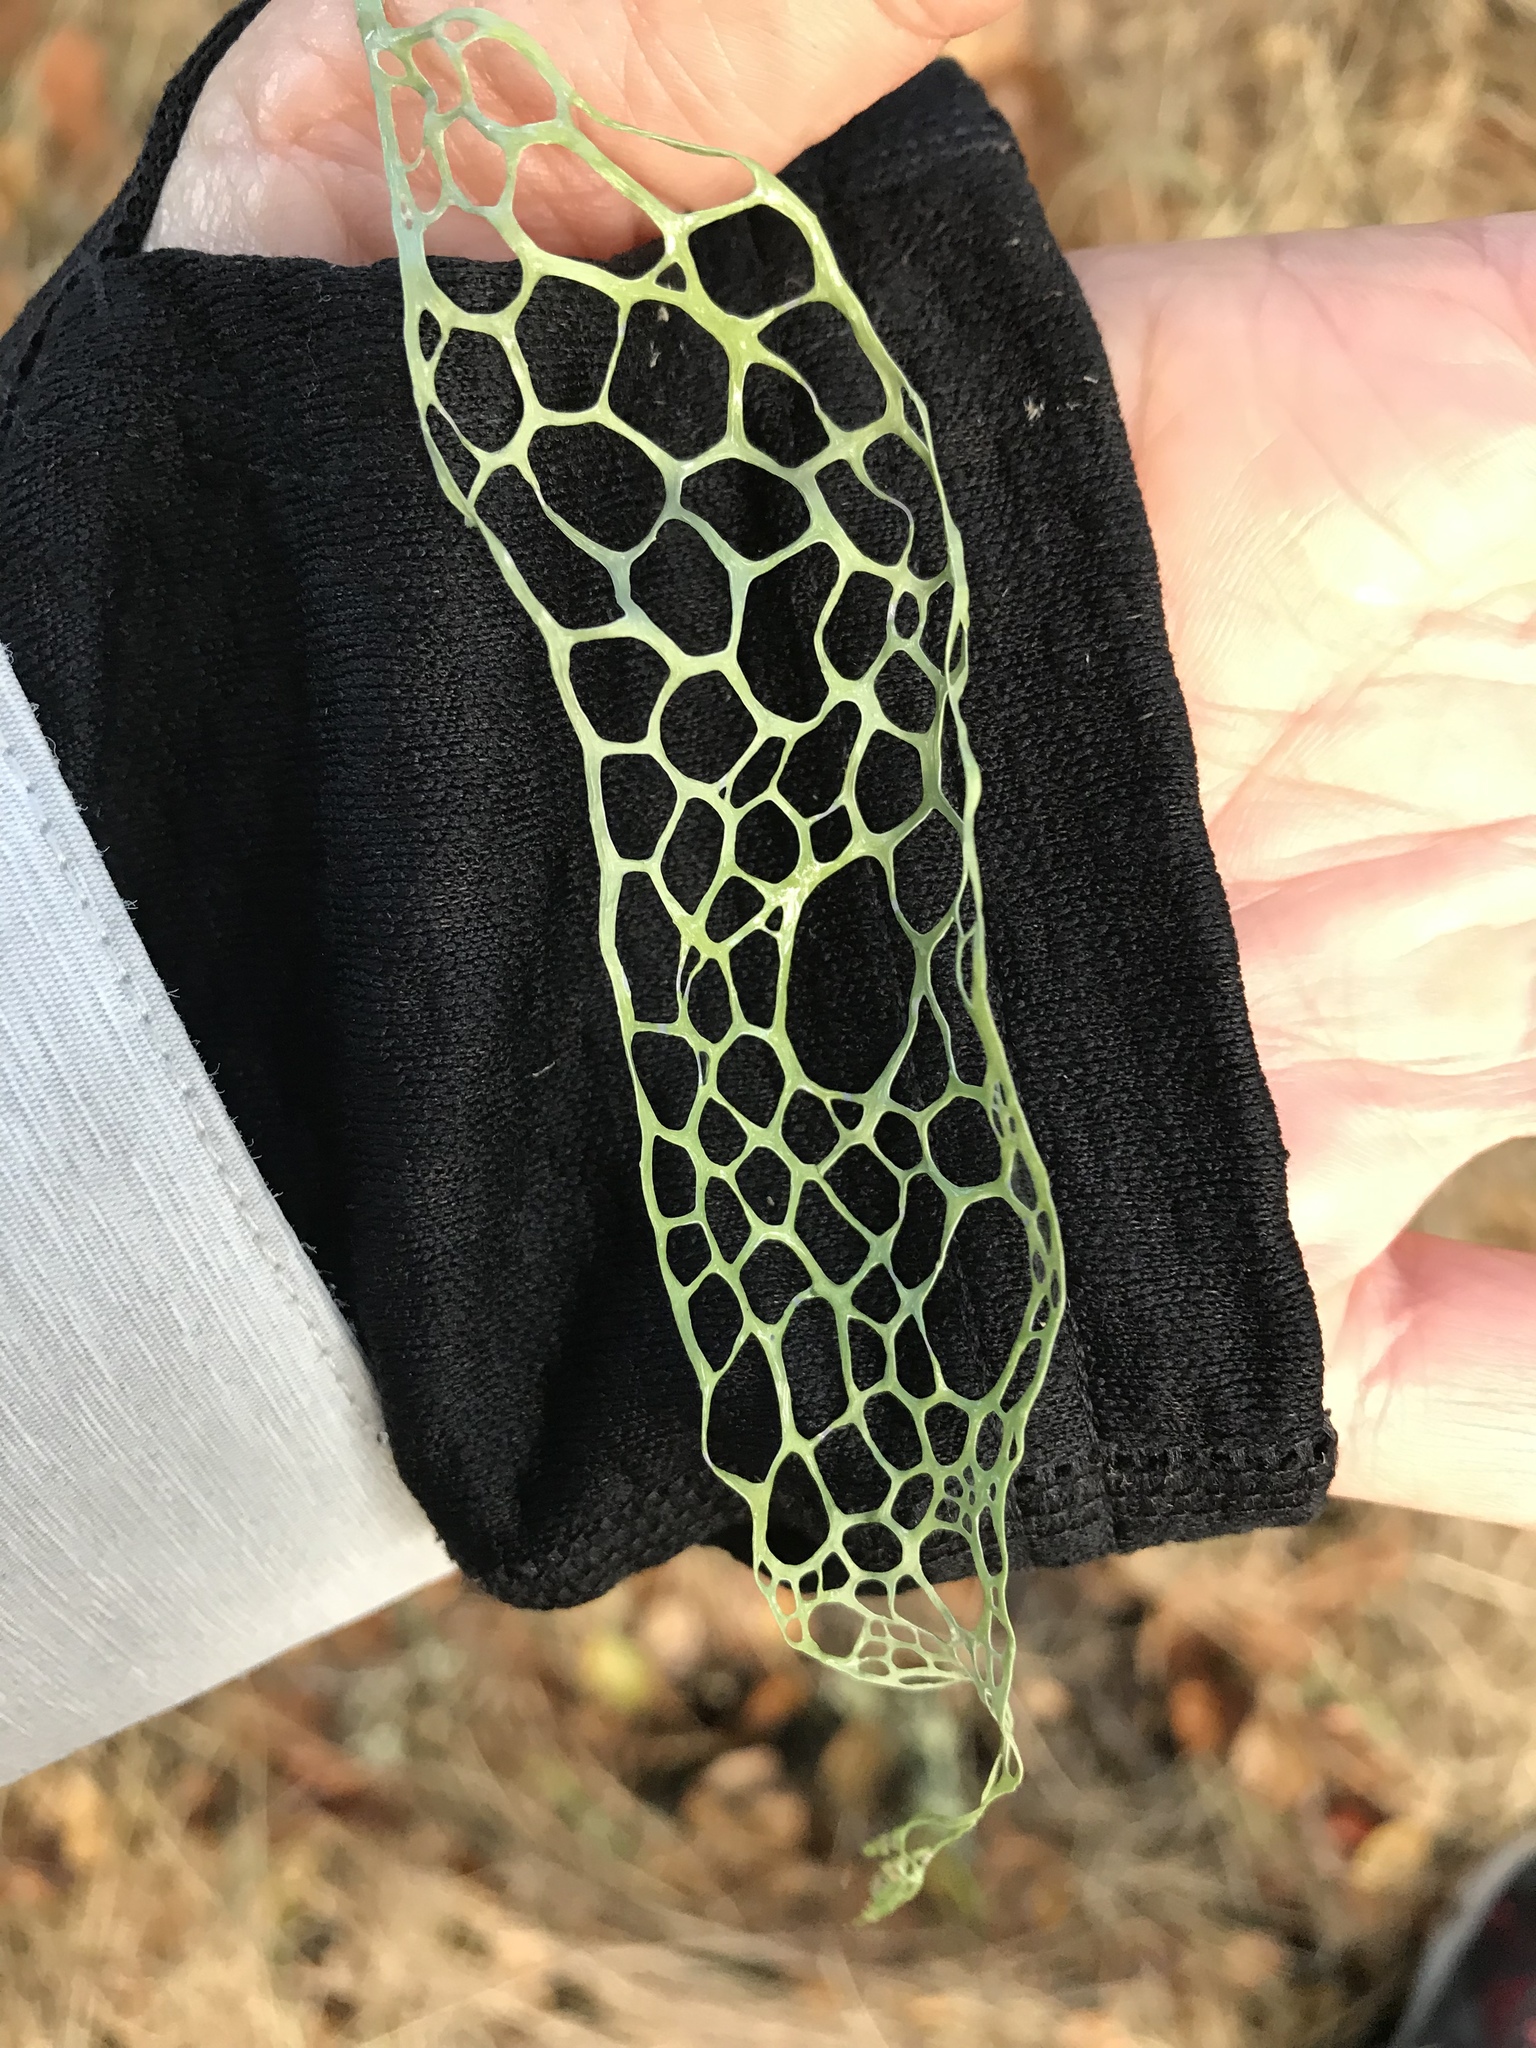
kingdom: Fungi
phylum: Ascomycota
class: Lecanoromycetes
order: Lecanorales
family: Ramalinaceae
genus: Ramalina
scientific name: Ramalina menziesii
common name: Lace lichen
